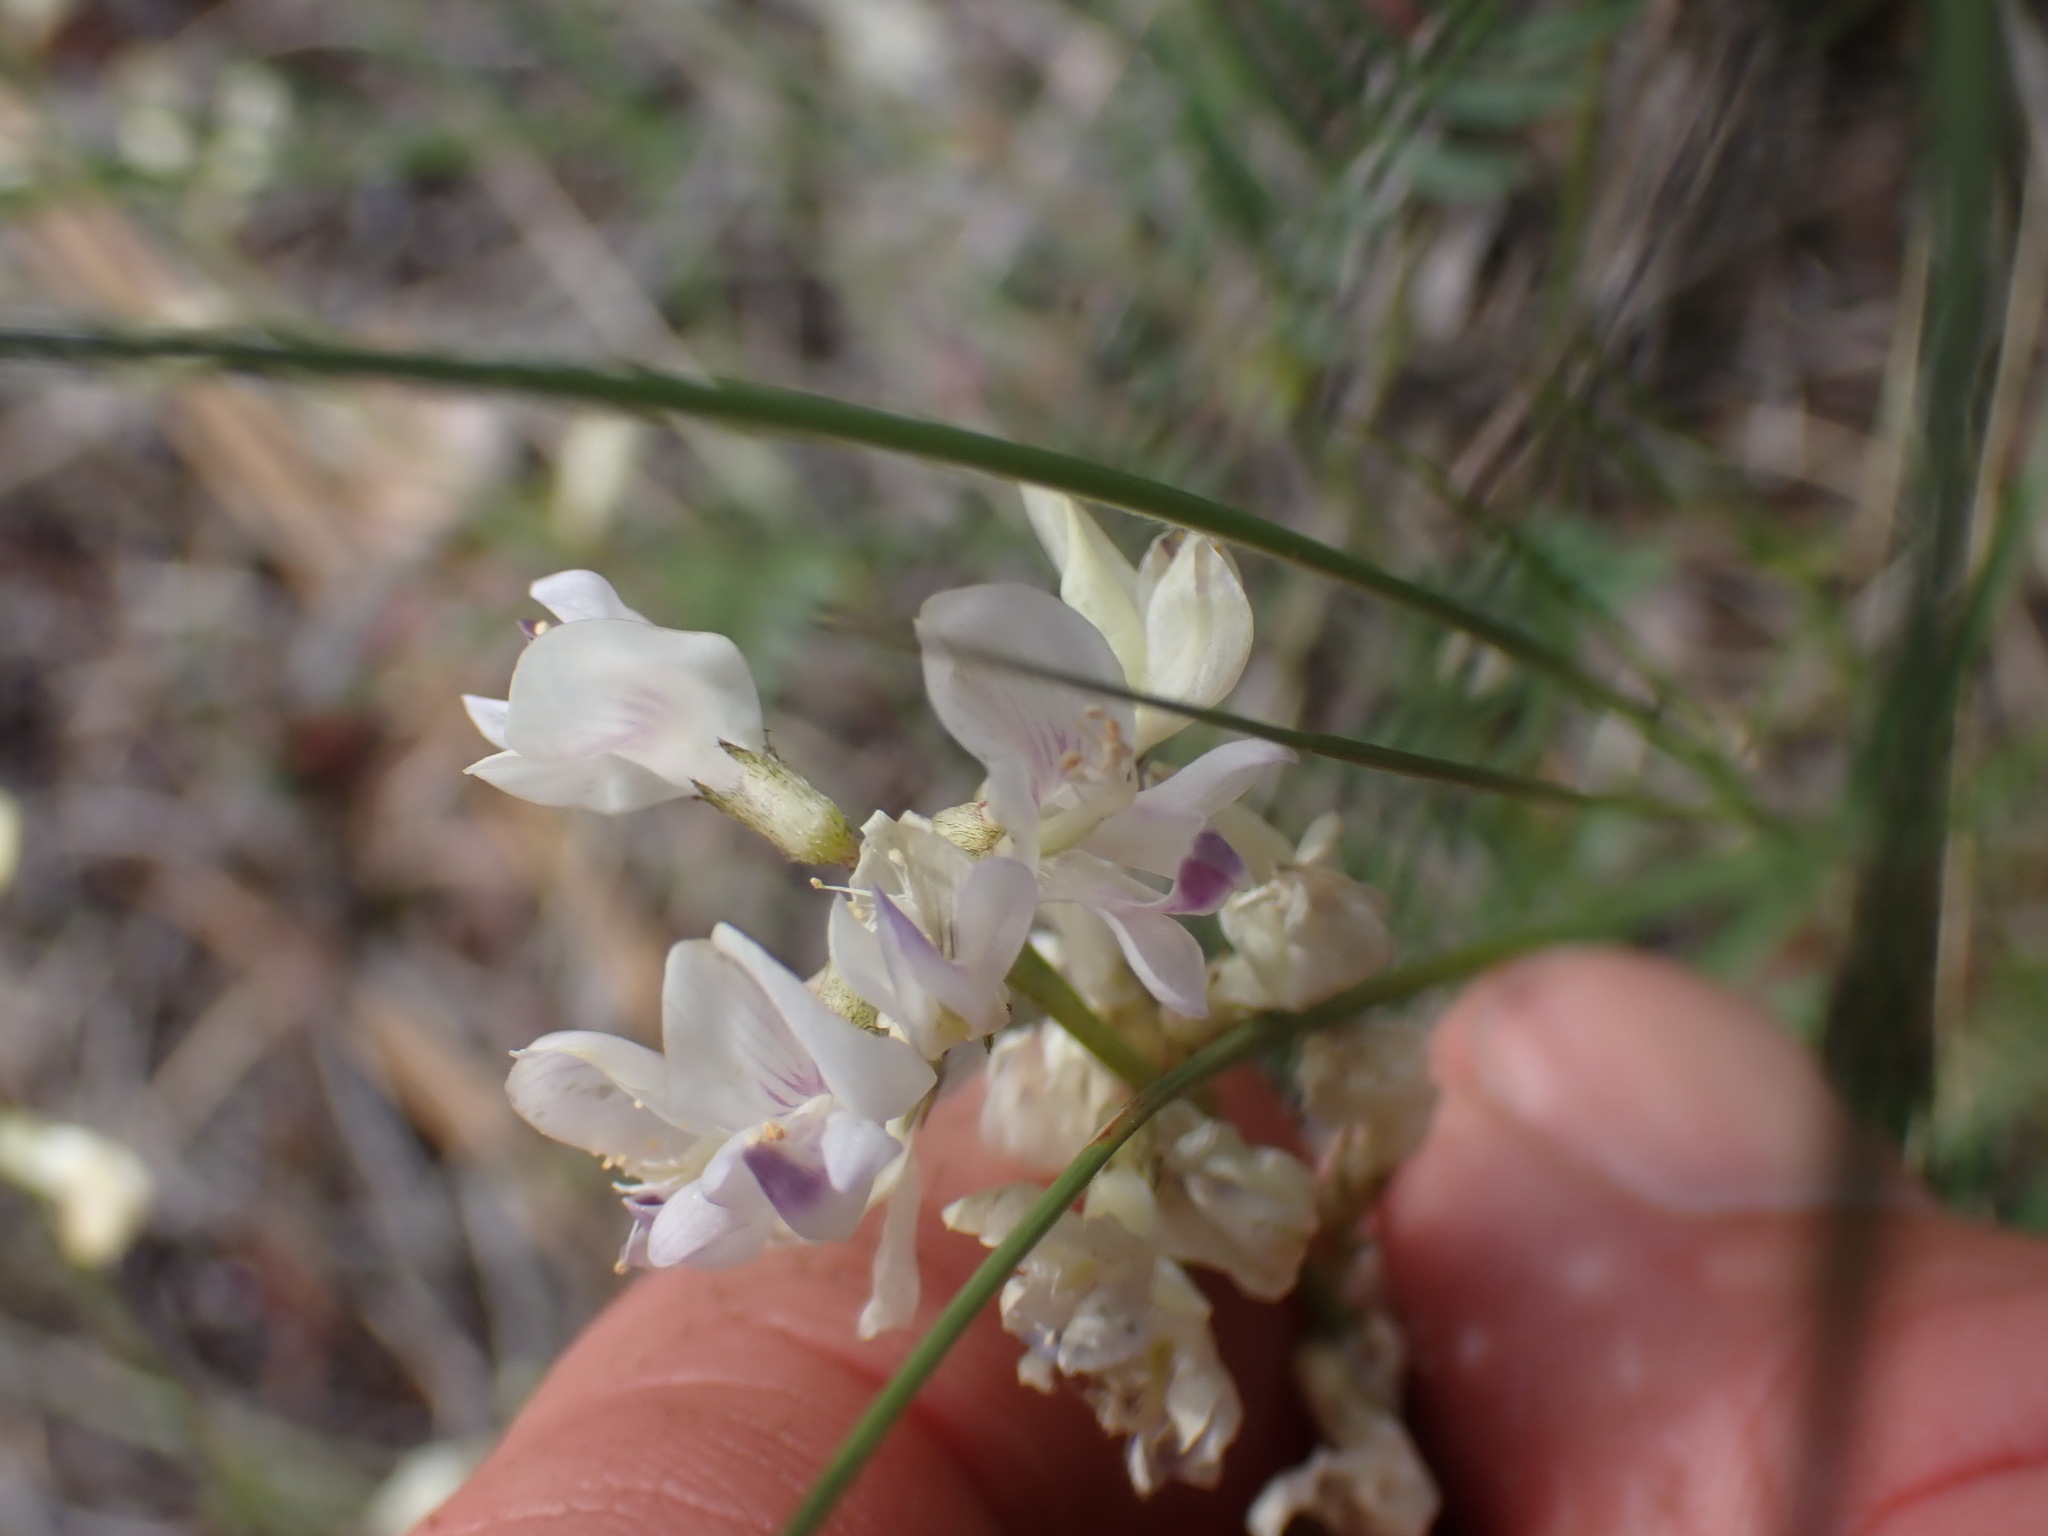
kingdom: Plantae
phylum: Tracheophyta
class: Magnoliopsida
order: Fabales
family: Fabaceae
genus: Astragalus
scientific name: Astragalus miser
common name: Timber milkvetch
